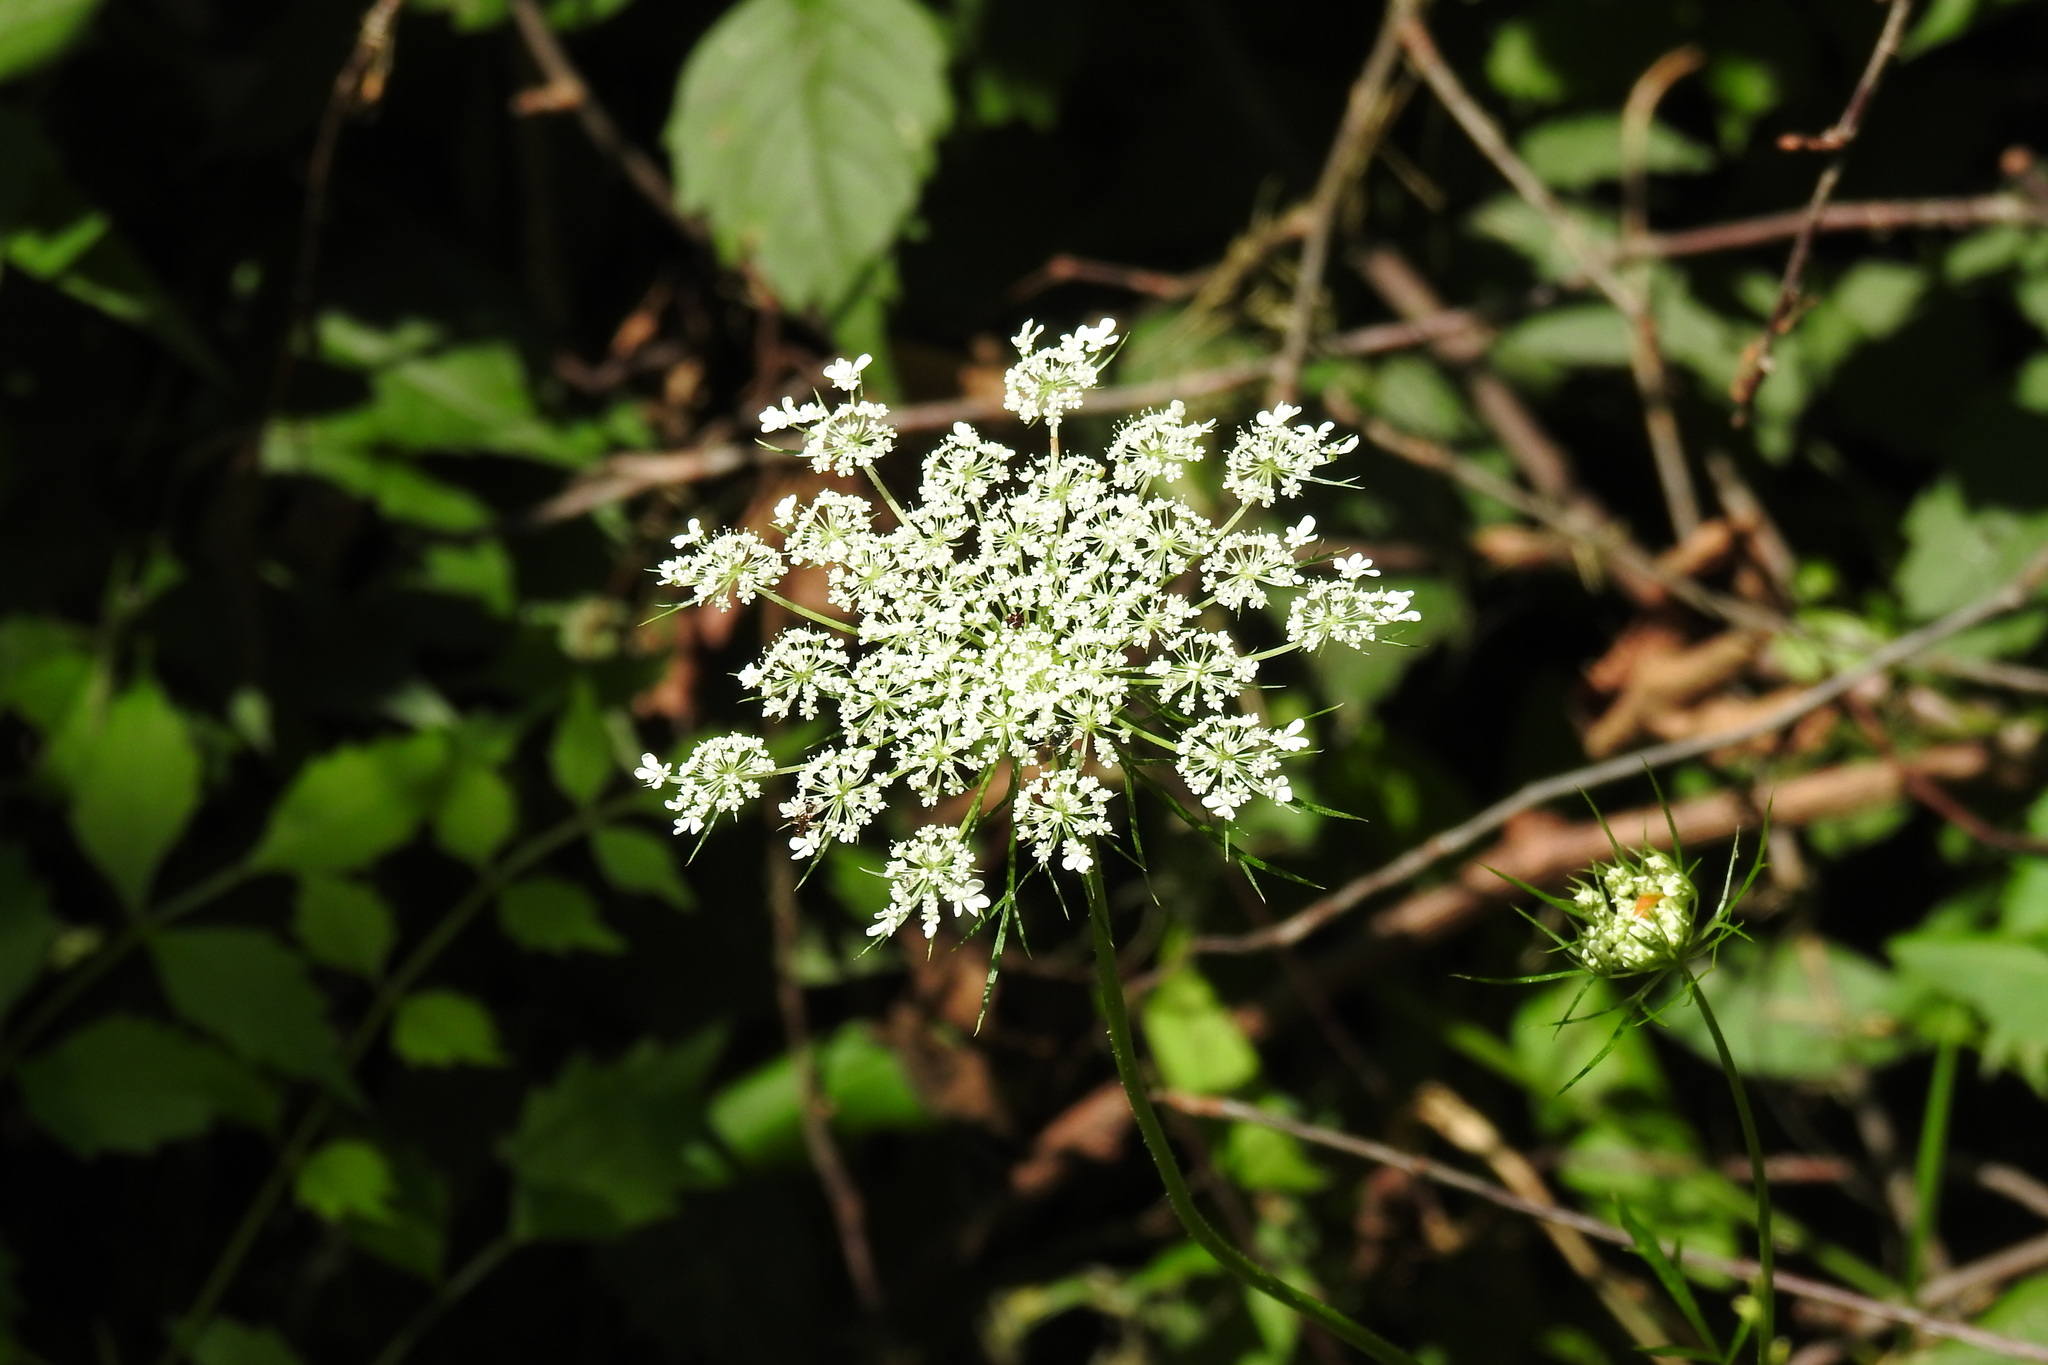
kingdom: Plantae
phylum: Tracheophyta
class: Magnoliopsida
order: Apiales
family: Apiaceae
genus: Daucus
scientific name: Daucus carota
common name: Wild carrot
